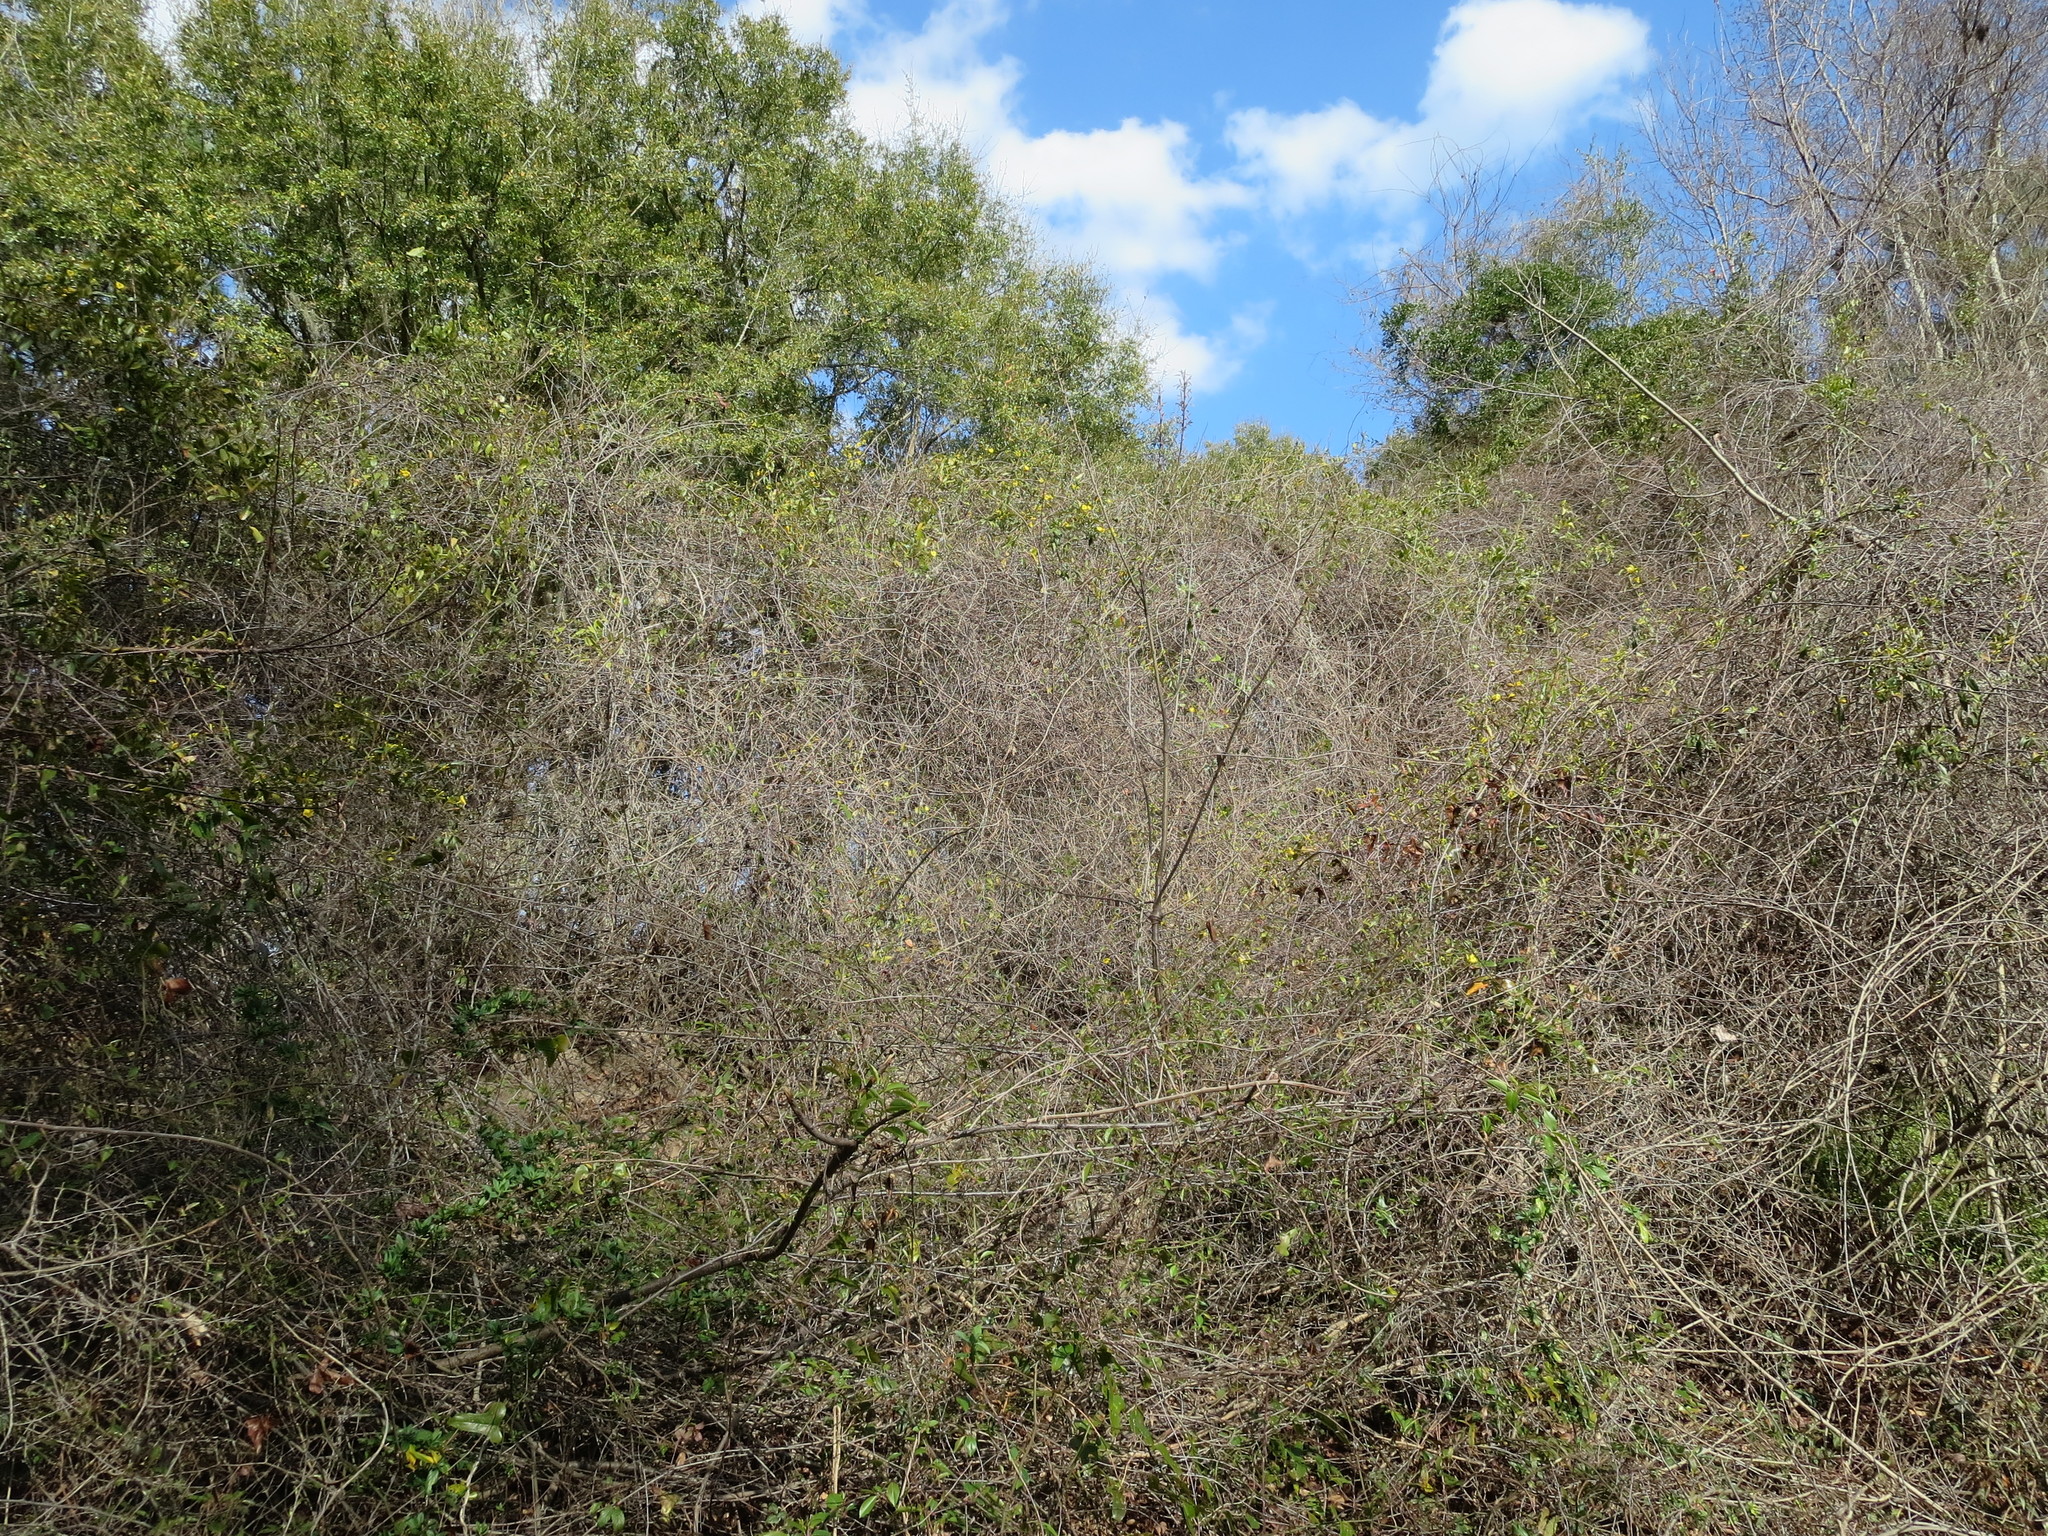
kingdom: Plantae
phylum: Tracheophyta
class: Magnoliopsida
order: Gentianales
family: Gelsemiaceae
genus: Gelsemium
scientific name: Gelsemium sempervirens
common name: Carolina-jasmine
